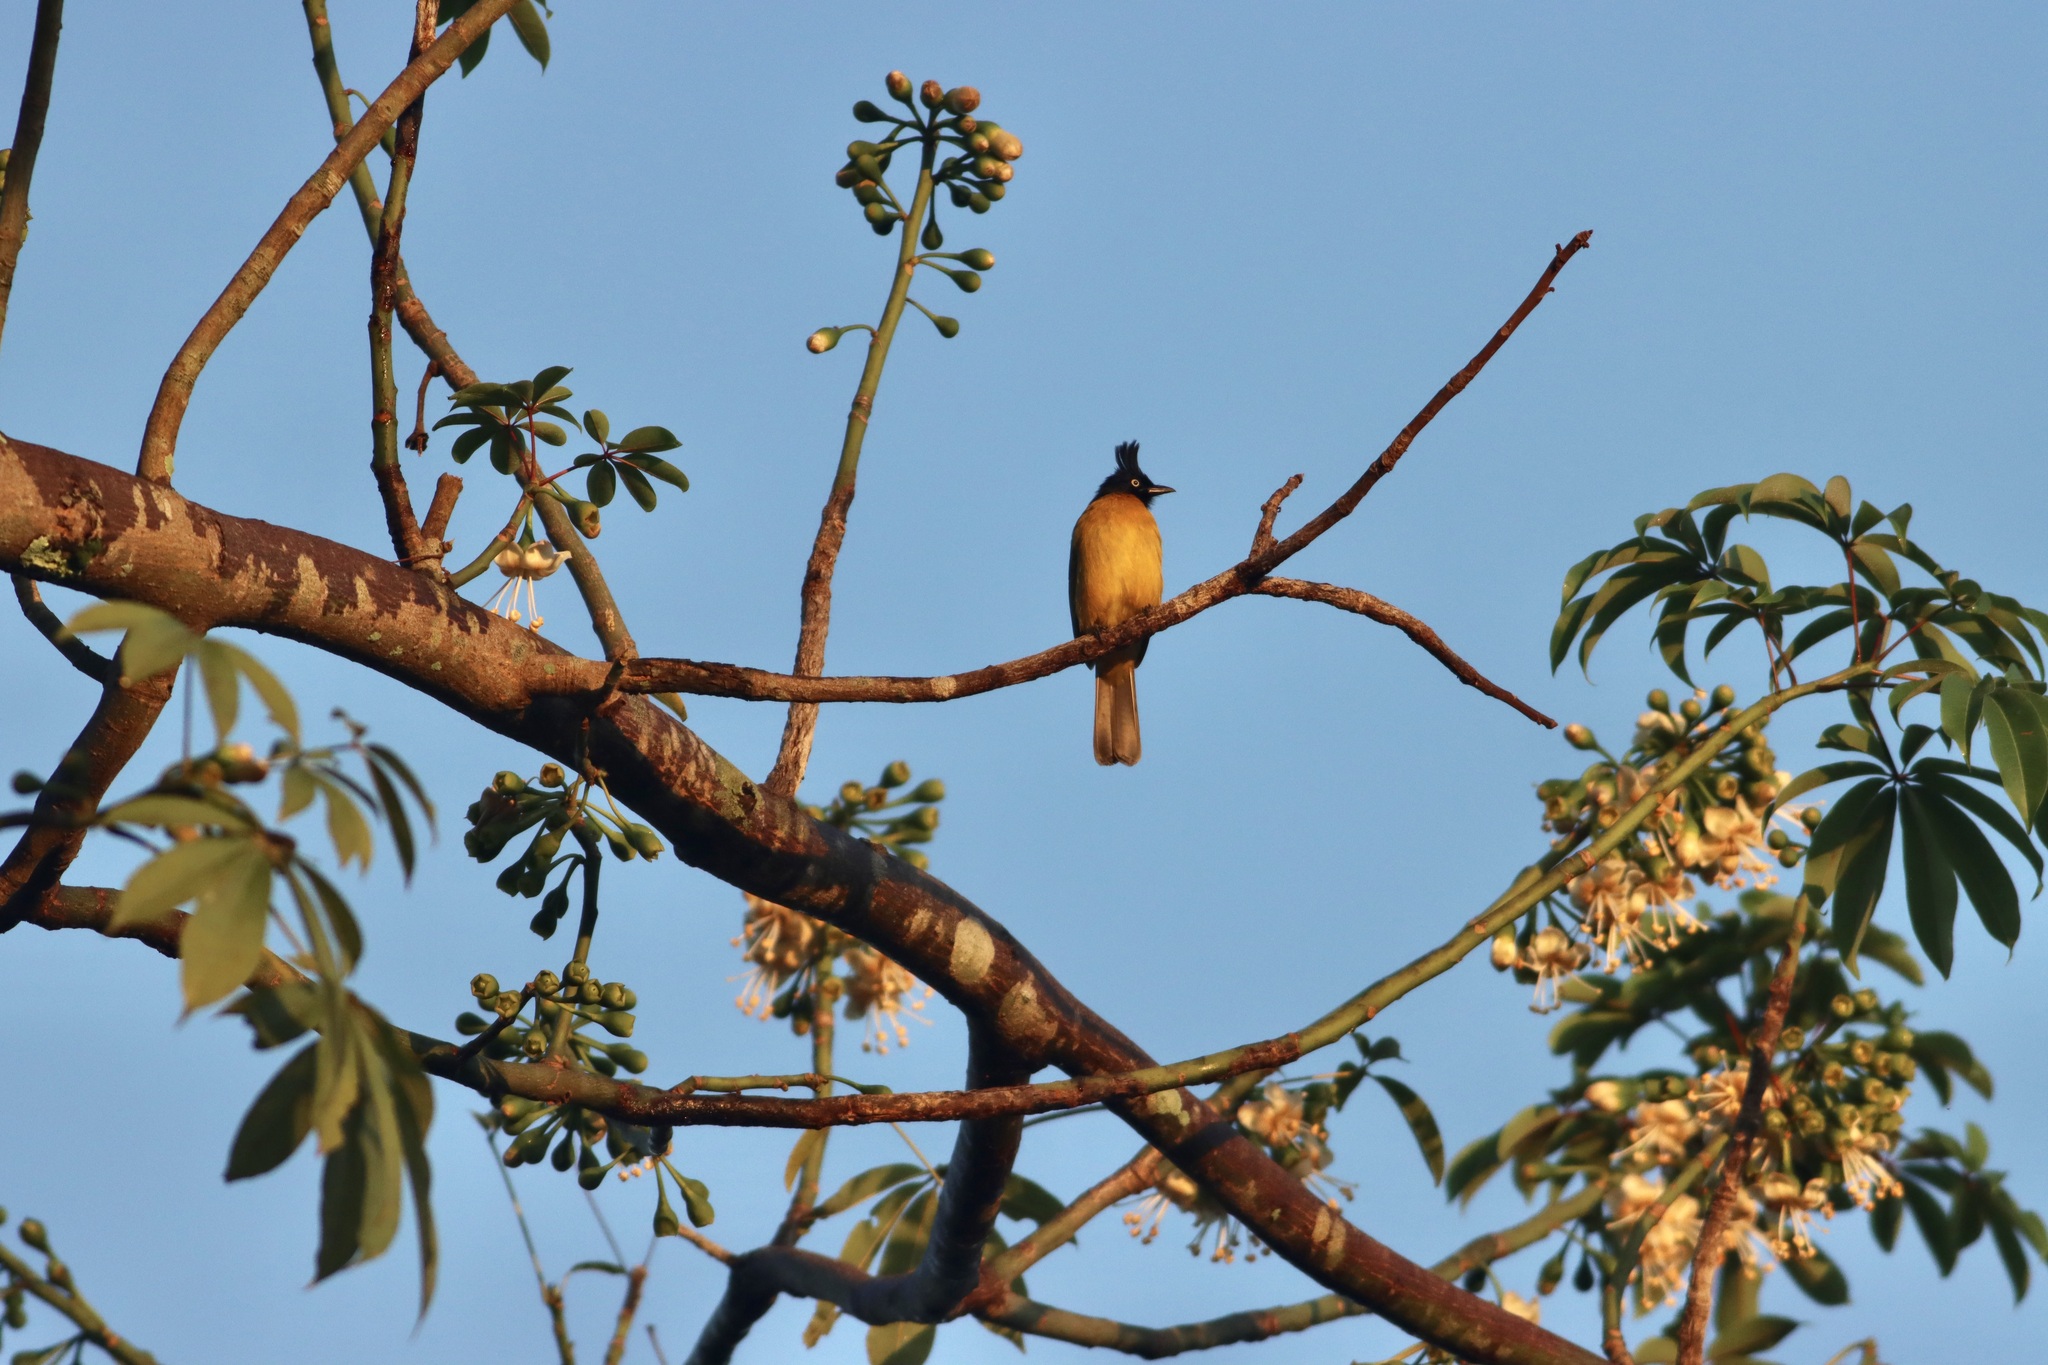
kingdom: Animalia
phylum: Chordata
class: Aves
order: Passeriformes
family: Pycnonotidae
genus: Pycnonotus
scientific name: Pycnonotus flaviventris
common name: Black-crested bulbul
